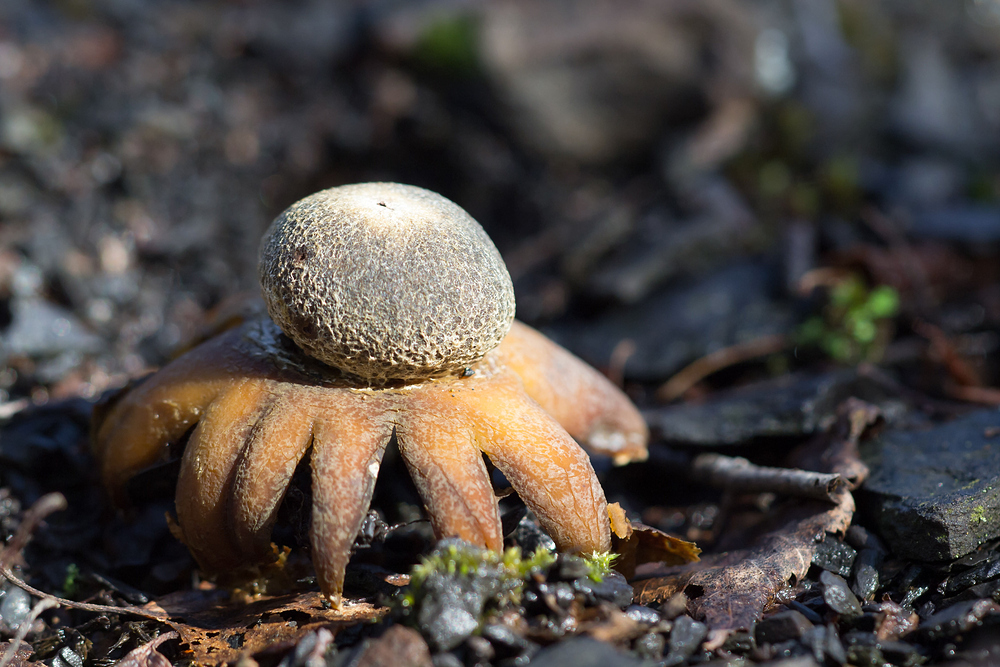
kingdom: Fungi
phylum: Basidiomycota
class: Agaricomycetes
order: Boletales
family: Diplocystidiaceae
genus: Astraeus
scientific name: Astraeus hygrometricus
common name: Barometer earthstar
